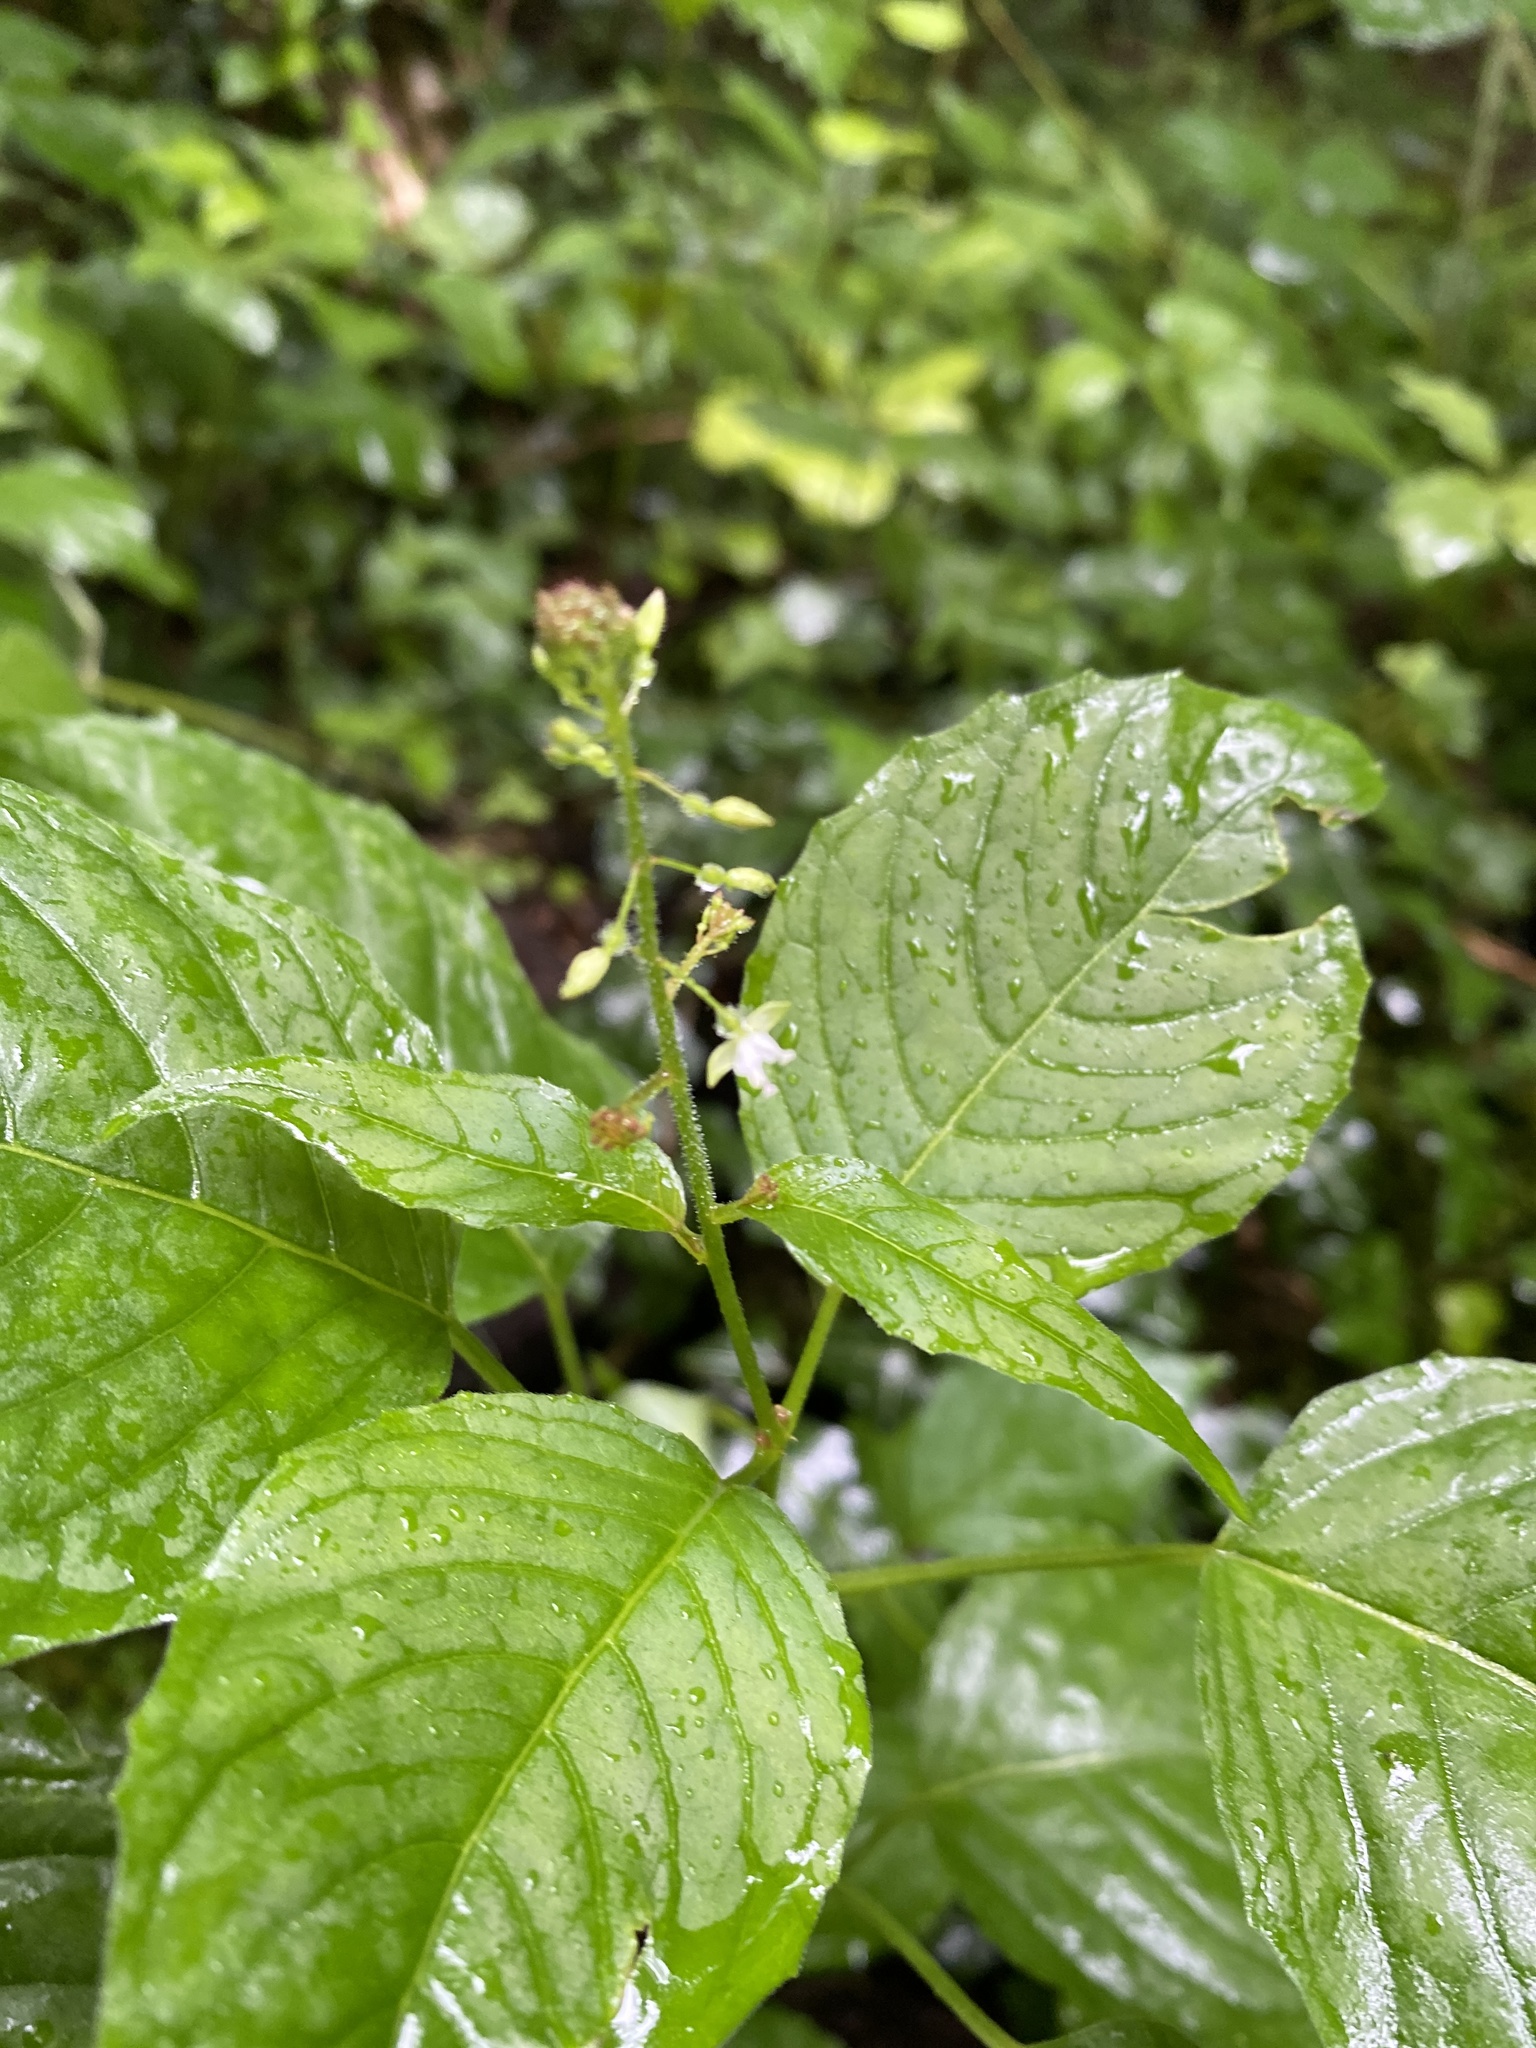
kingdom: Plantae
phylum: Tracheophyta
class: Magnoliopsida
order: Myrtales
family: Onagraceae
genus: Circaea
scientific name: Circaea lutetiana
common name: Enchanter's-nightshade
